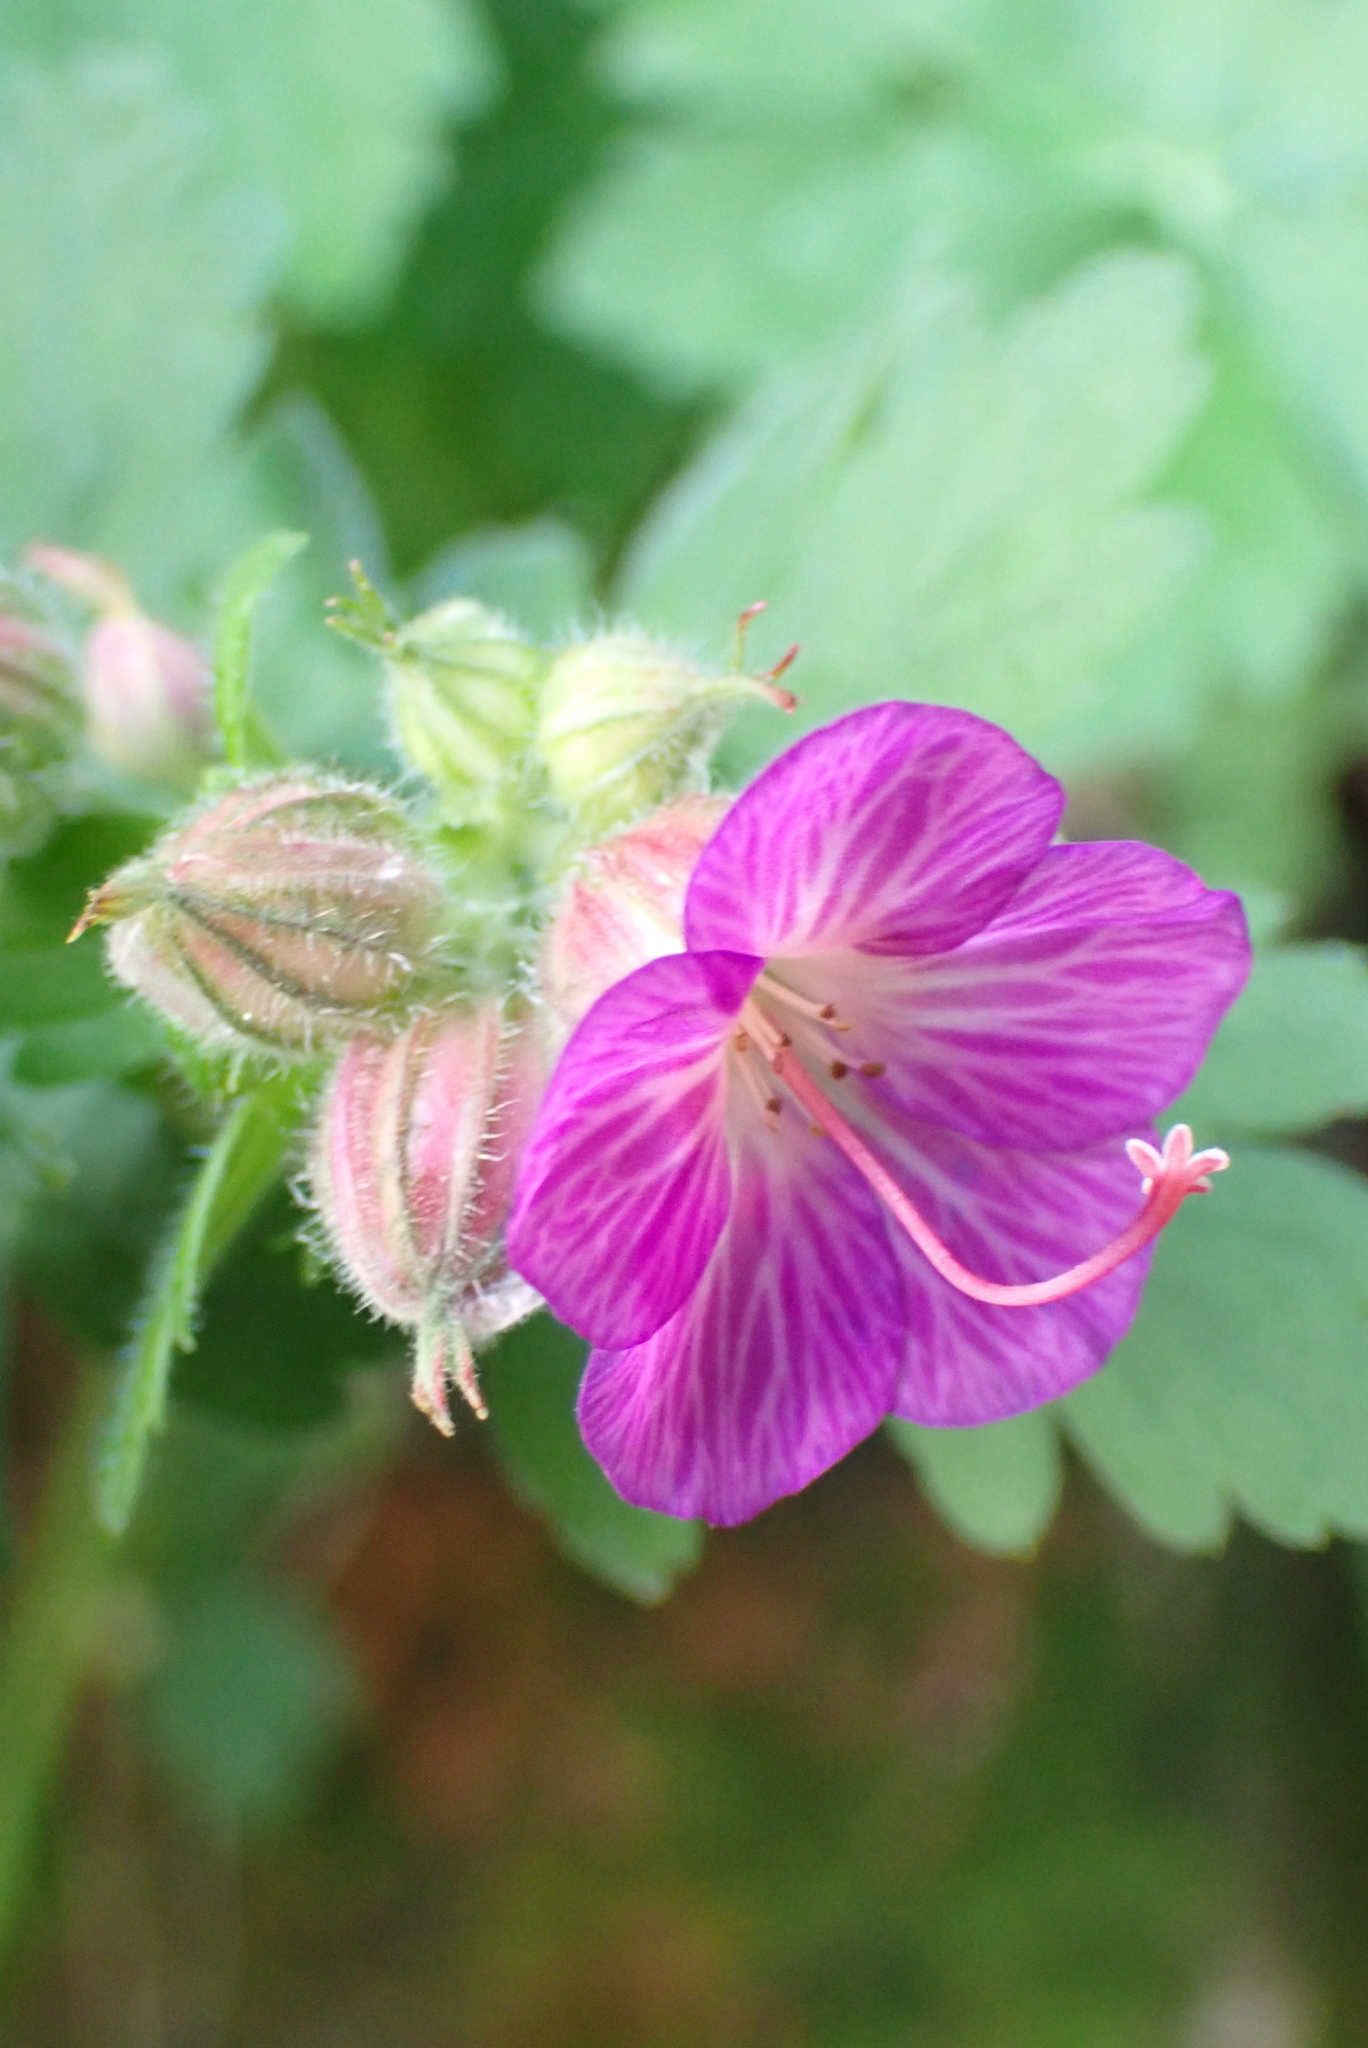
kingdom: Plantae
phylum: Tracheophyta
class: Magnoliopsida
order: Geraniales
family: Geraniaceae
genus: Geranium
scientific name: Geranium cantabrigiense
